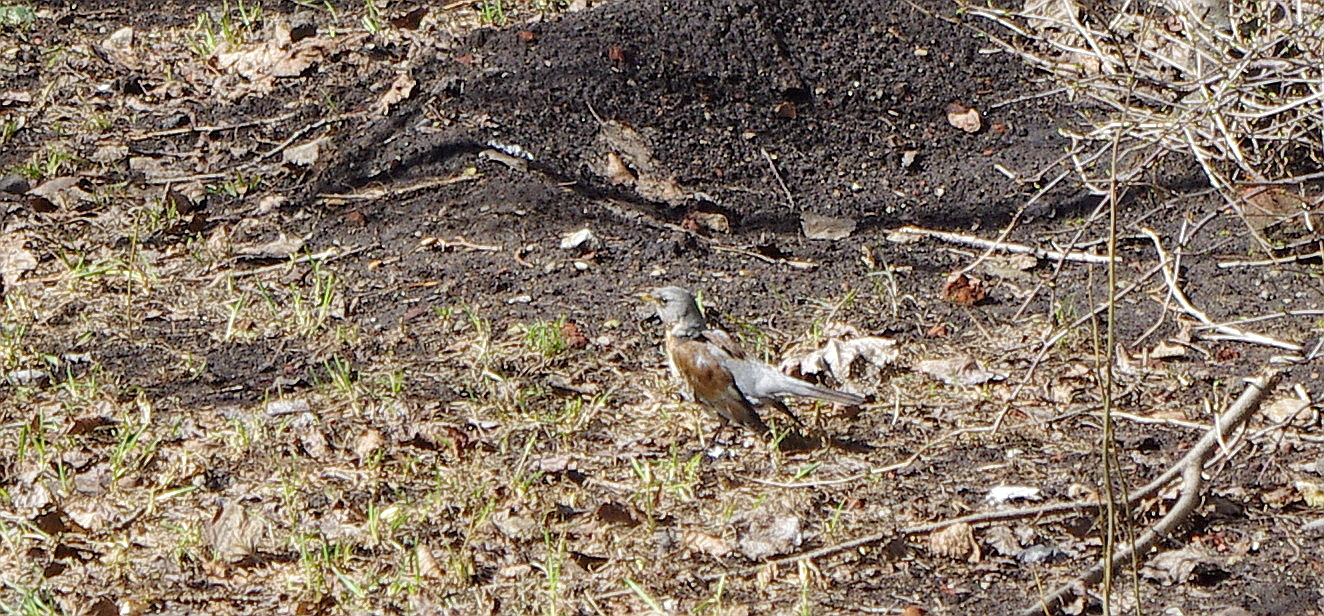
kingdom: Animalia
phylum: Chordata
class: Aves
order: Passeriformes
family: Turdidae
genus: Turdus
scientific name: Turdus pilaris
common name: Fieldfare
